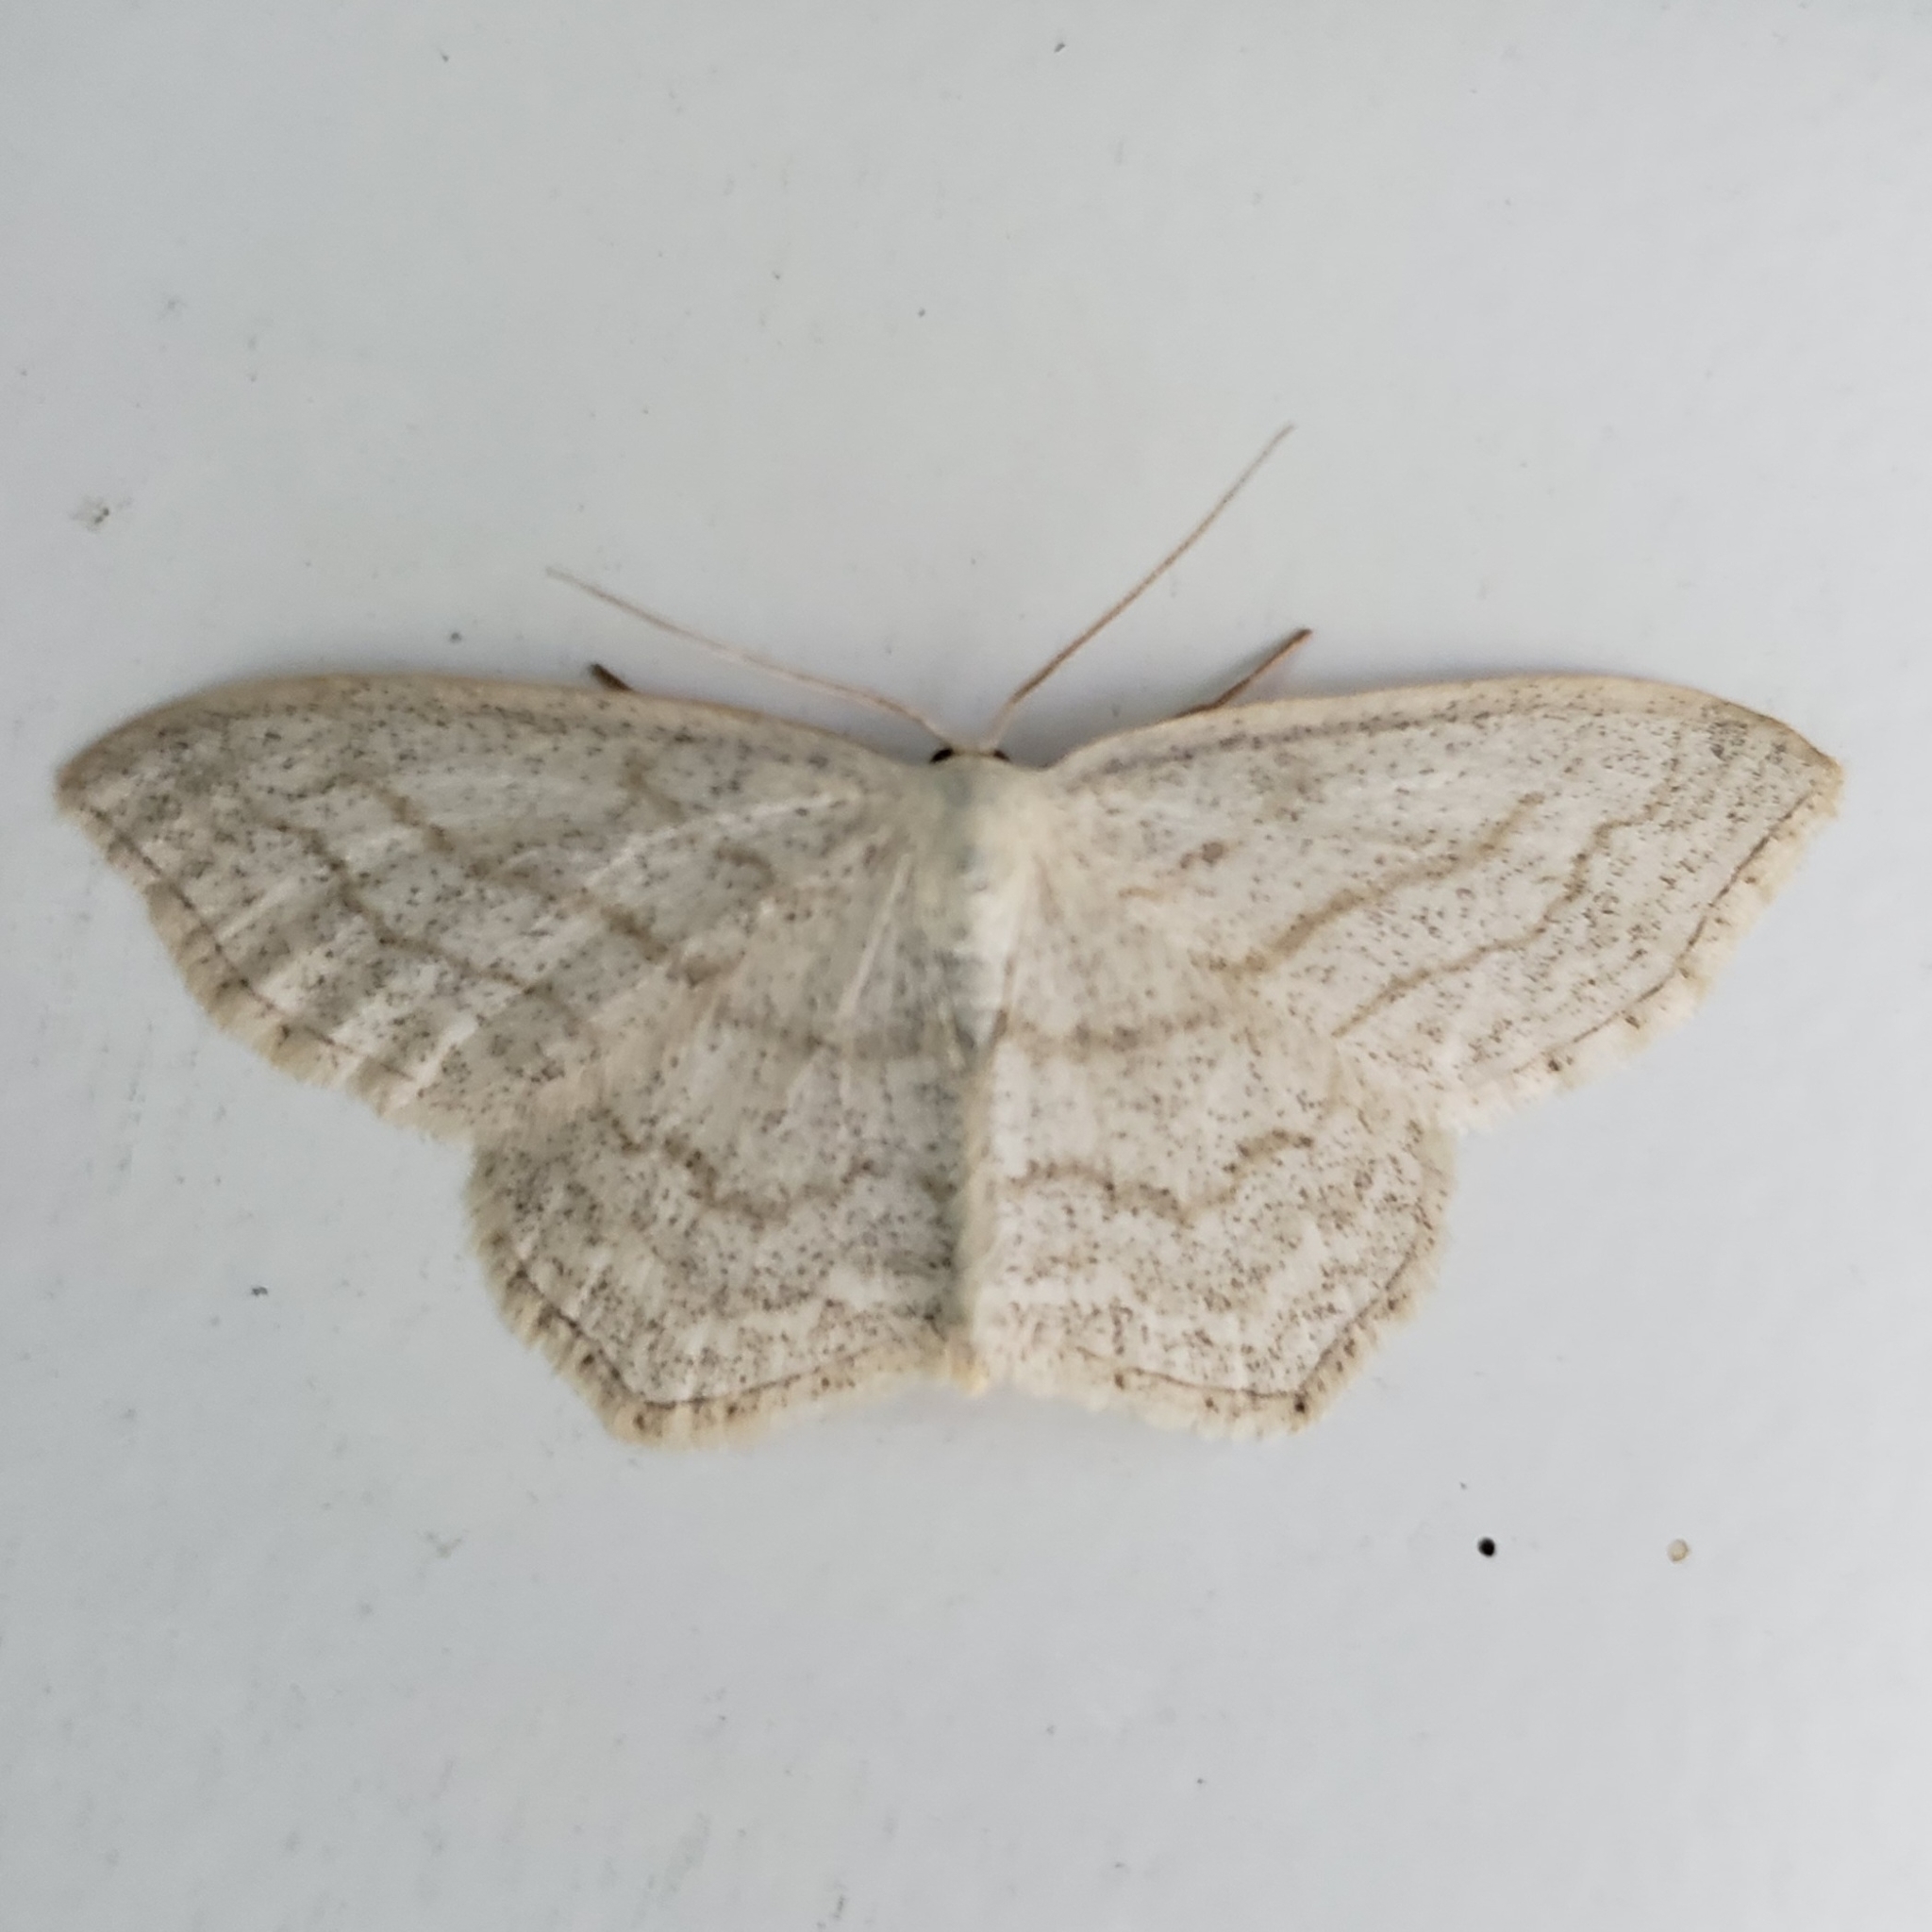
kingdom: Animalia
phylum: Arthropoda
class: Insecta
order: Lepidoptera
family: Geometridae
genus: Scopula
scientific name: Scopula junctaria
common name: Simple wave
